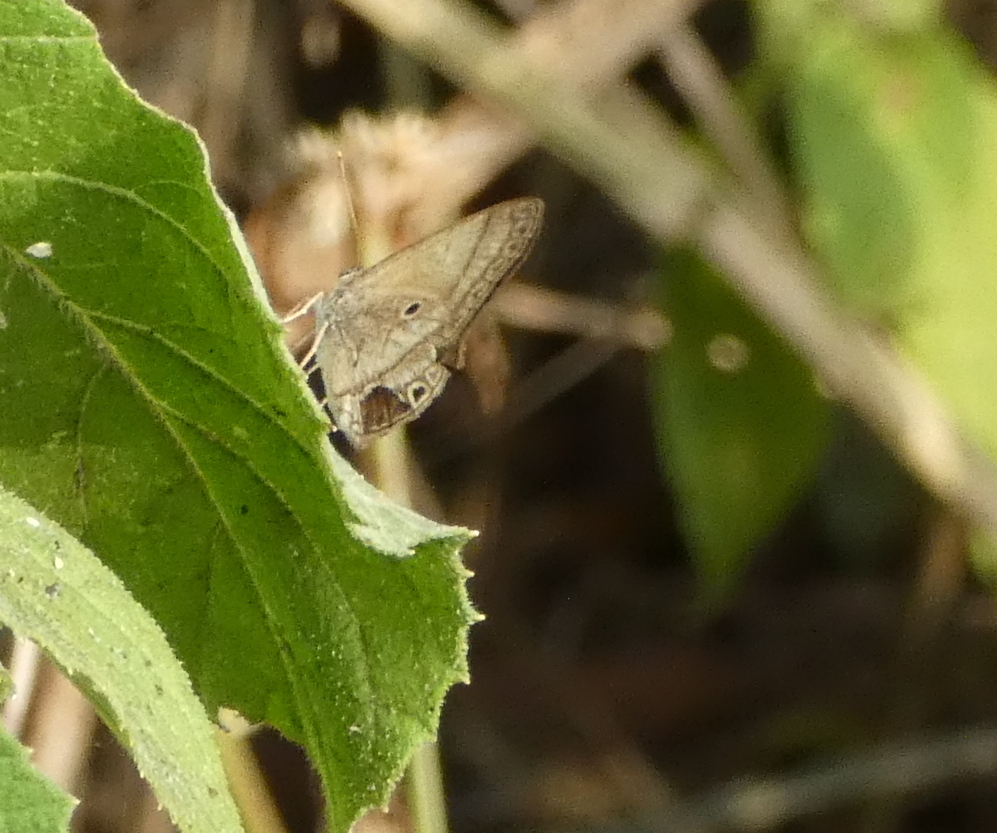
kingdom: Animalia
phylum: Arthropoda
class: Insecta
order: Lepidoptera
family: Lycaenidae
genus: Arawacus
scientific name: Arawacus
